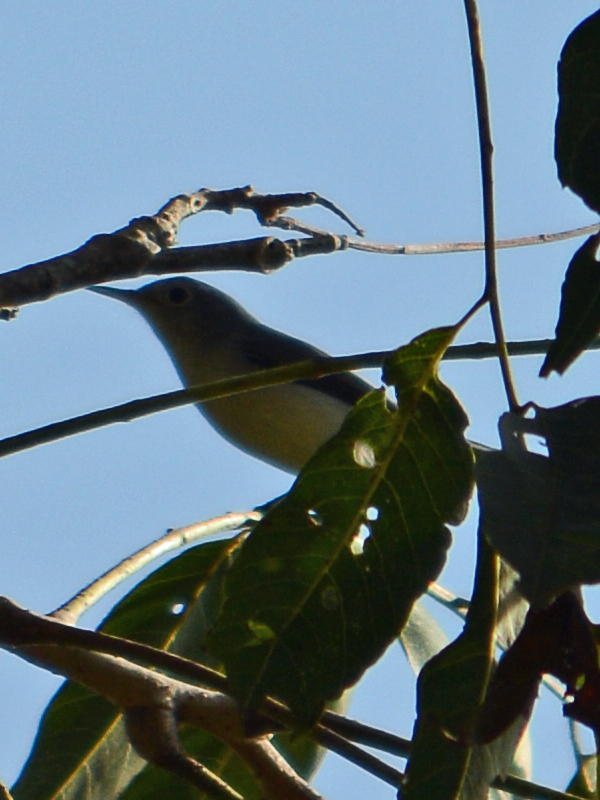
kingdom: Animalia
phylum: Chordata
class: Aves
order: Passeriformes
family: Polioptilidae
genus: Polioptila
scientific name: Polioptila caerulea
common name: Blue-gray gnatcatcher
